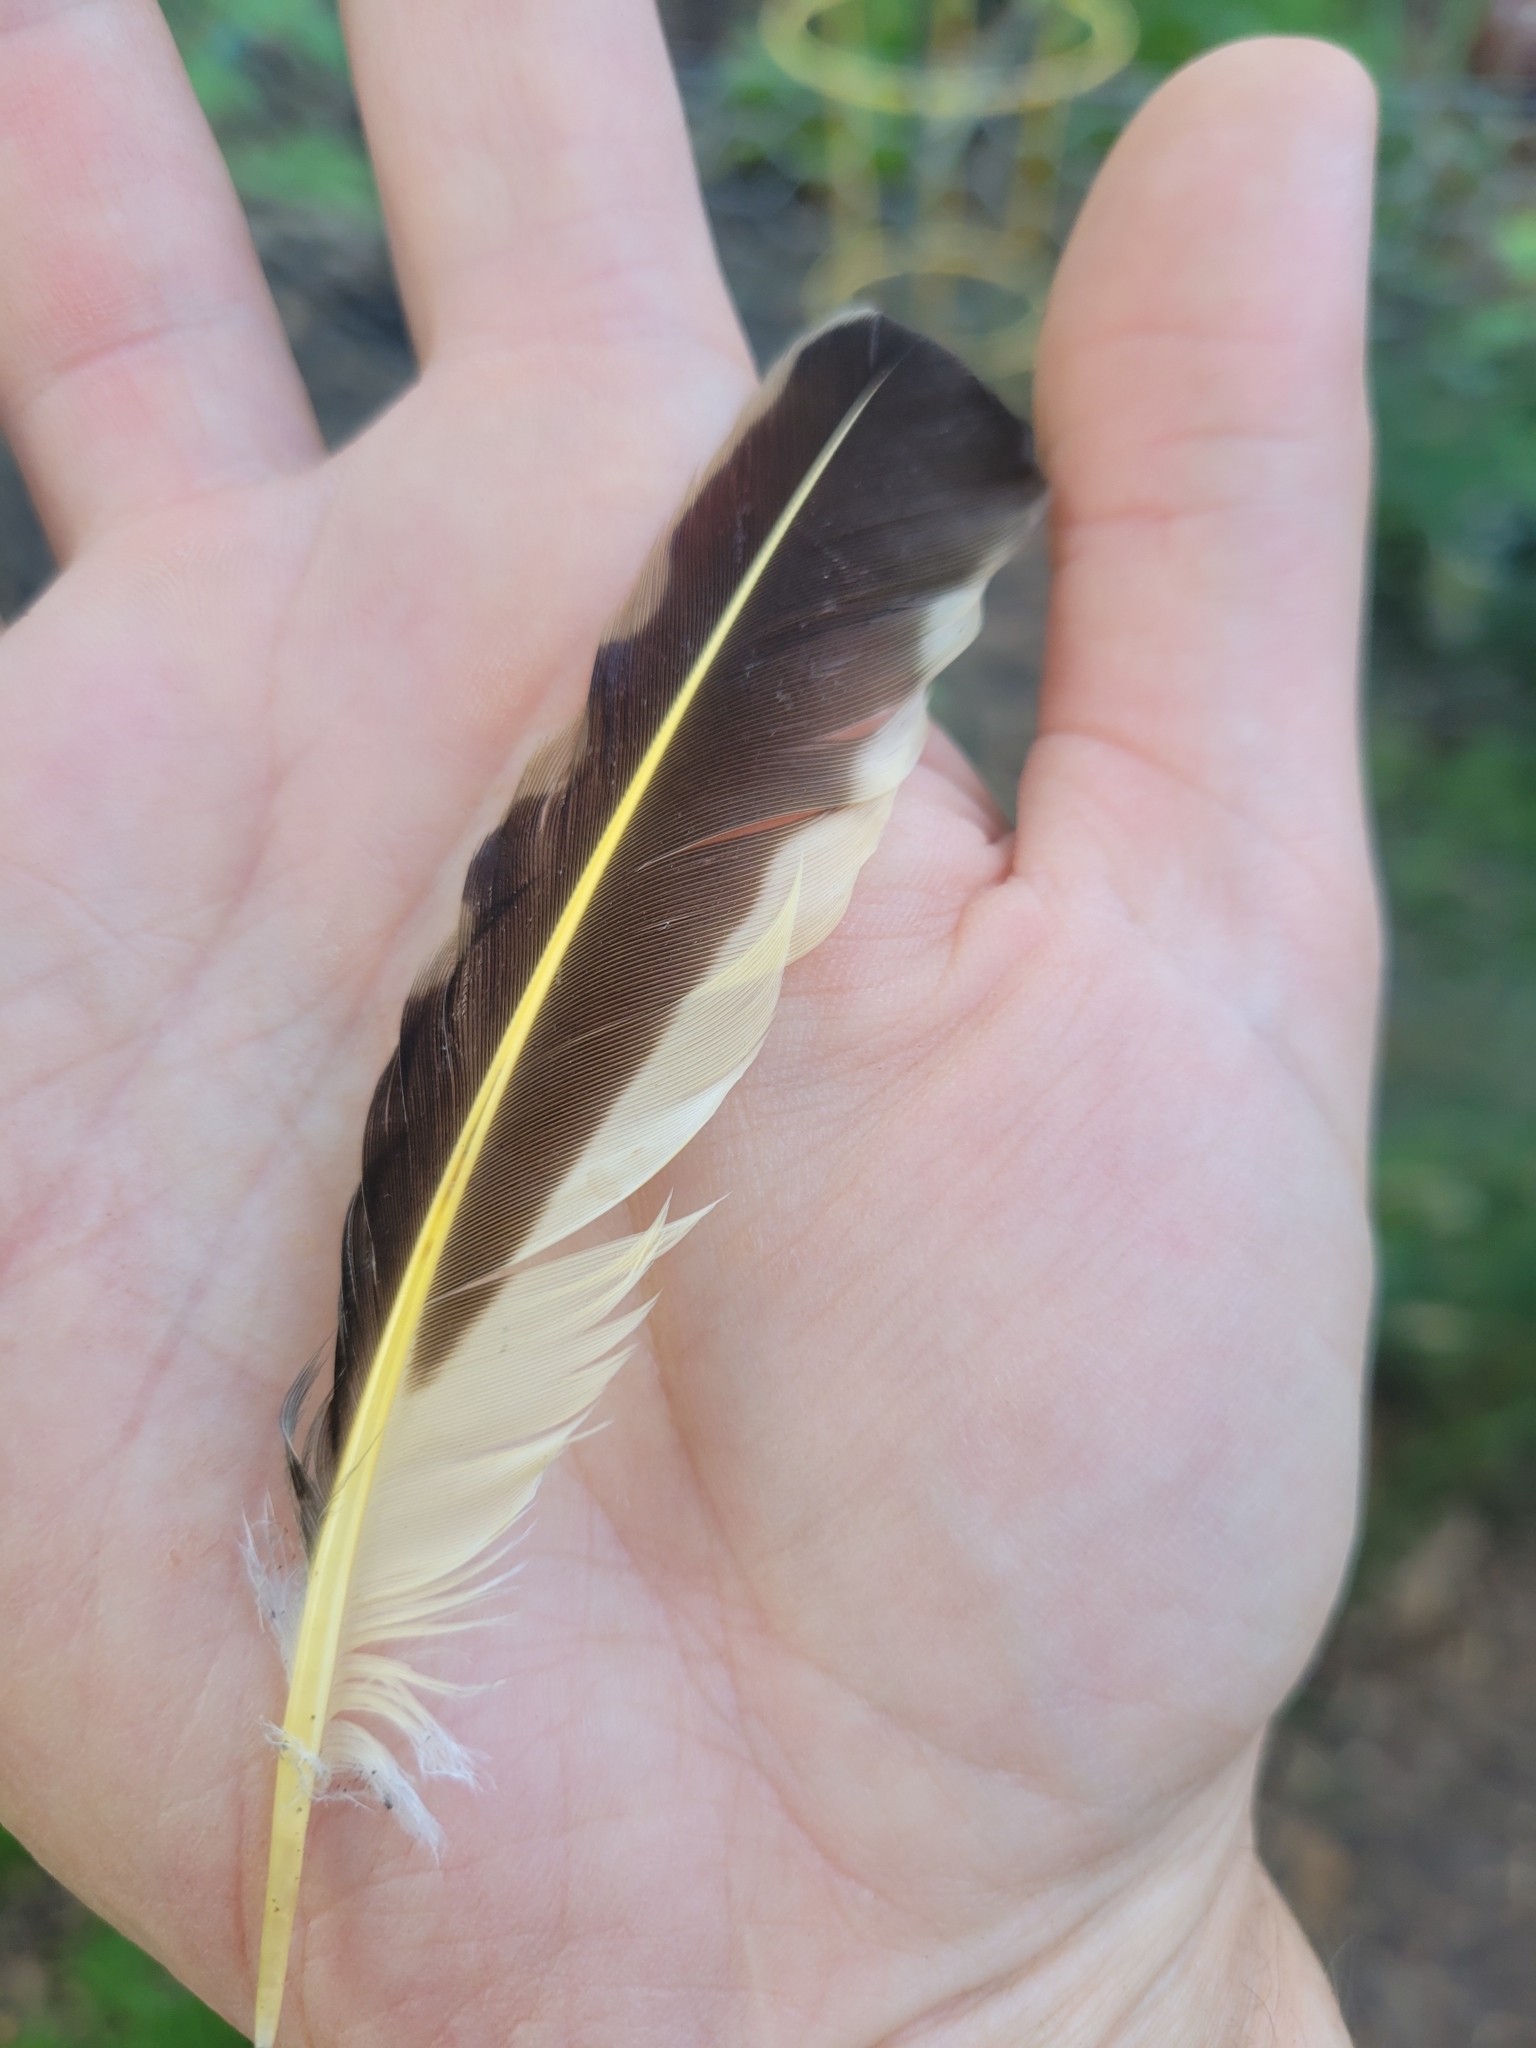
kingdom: Animalia
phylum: Chordata
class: Aves
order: Piciformes
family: Picidae
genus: Colaptes
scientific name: Colaptes auratus
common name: Northern flicker
